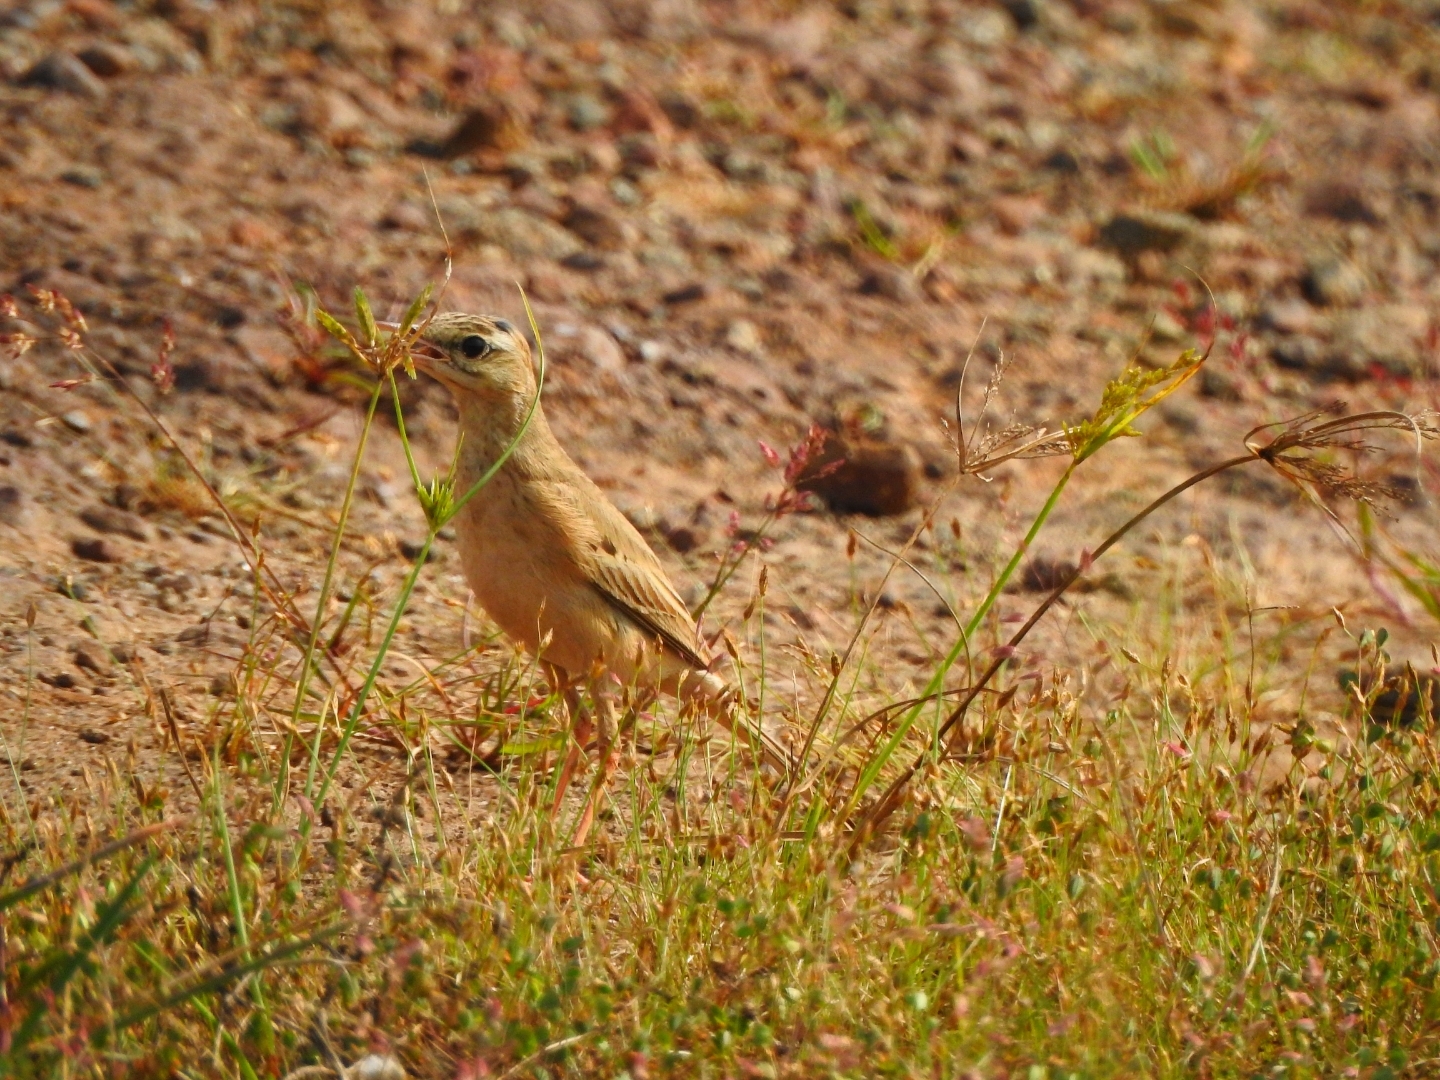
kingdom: Animalia
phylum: Chordata
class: Aves
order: Passeriformes
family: Motacillidae
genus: Anthus
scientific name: Anthus campestris
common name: Tawny pipit
